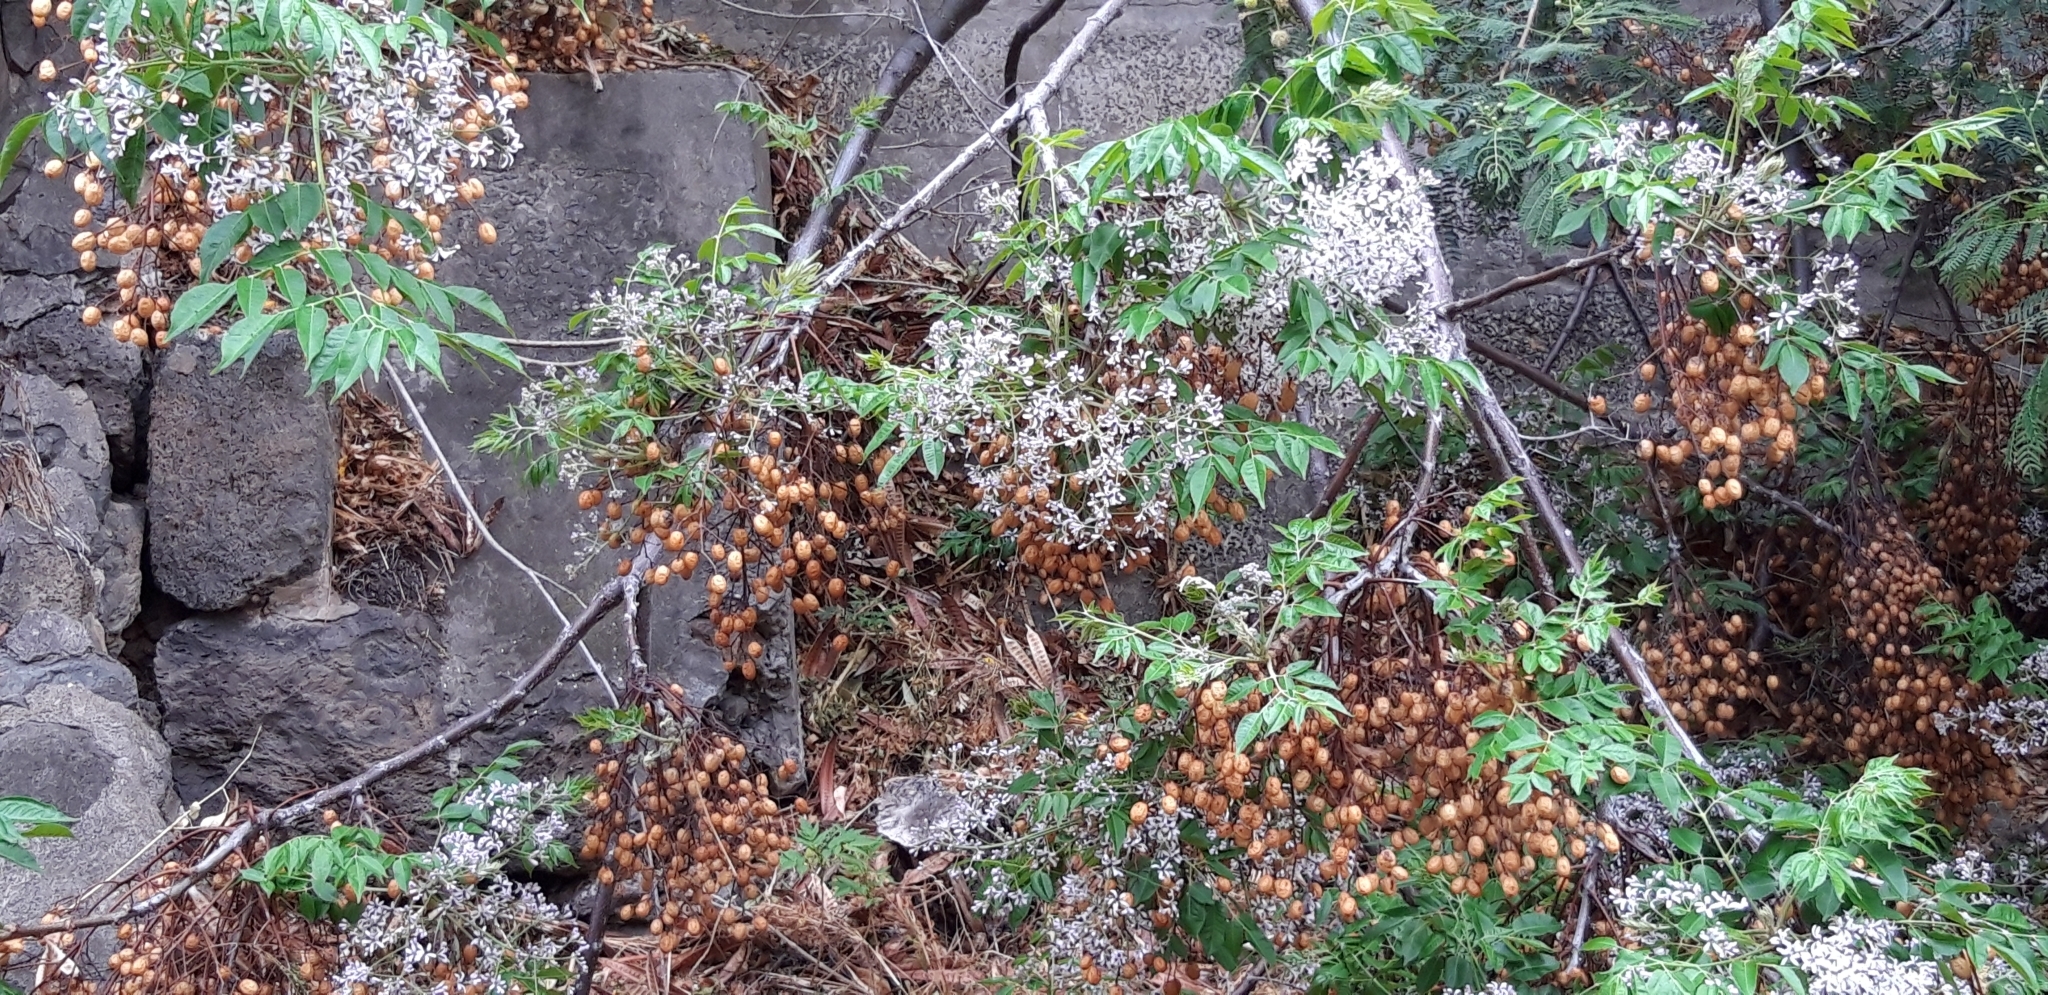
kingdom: Plantae
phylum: Tracheophyta
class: Magnoliopsida
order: Sapindales
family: Meliaceae
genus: Melia
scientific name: Melia azedarach
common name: Chinaberrytree
